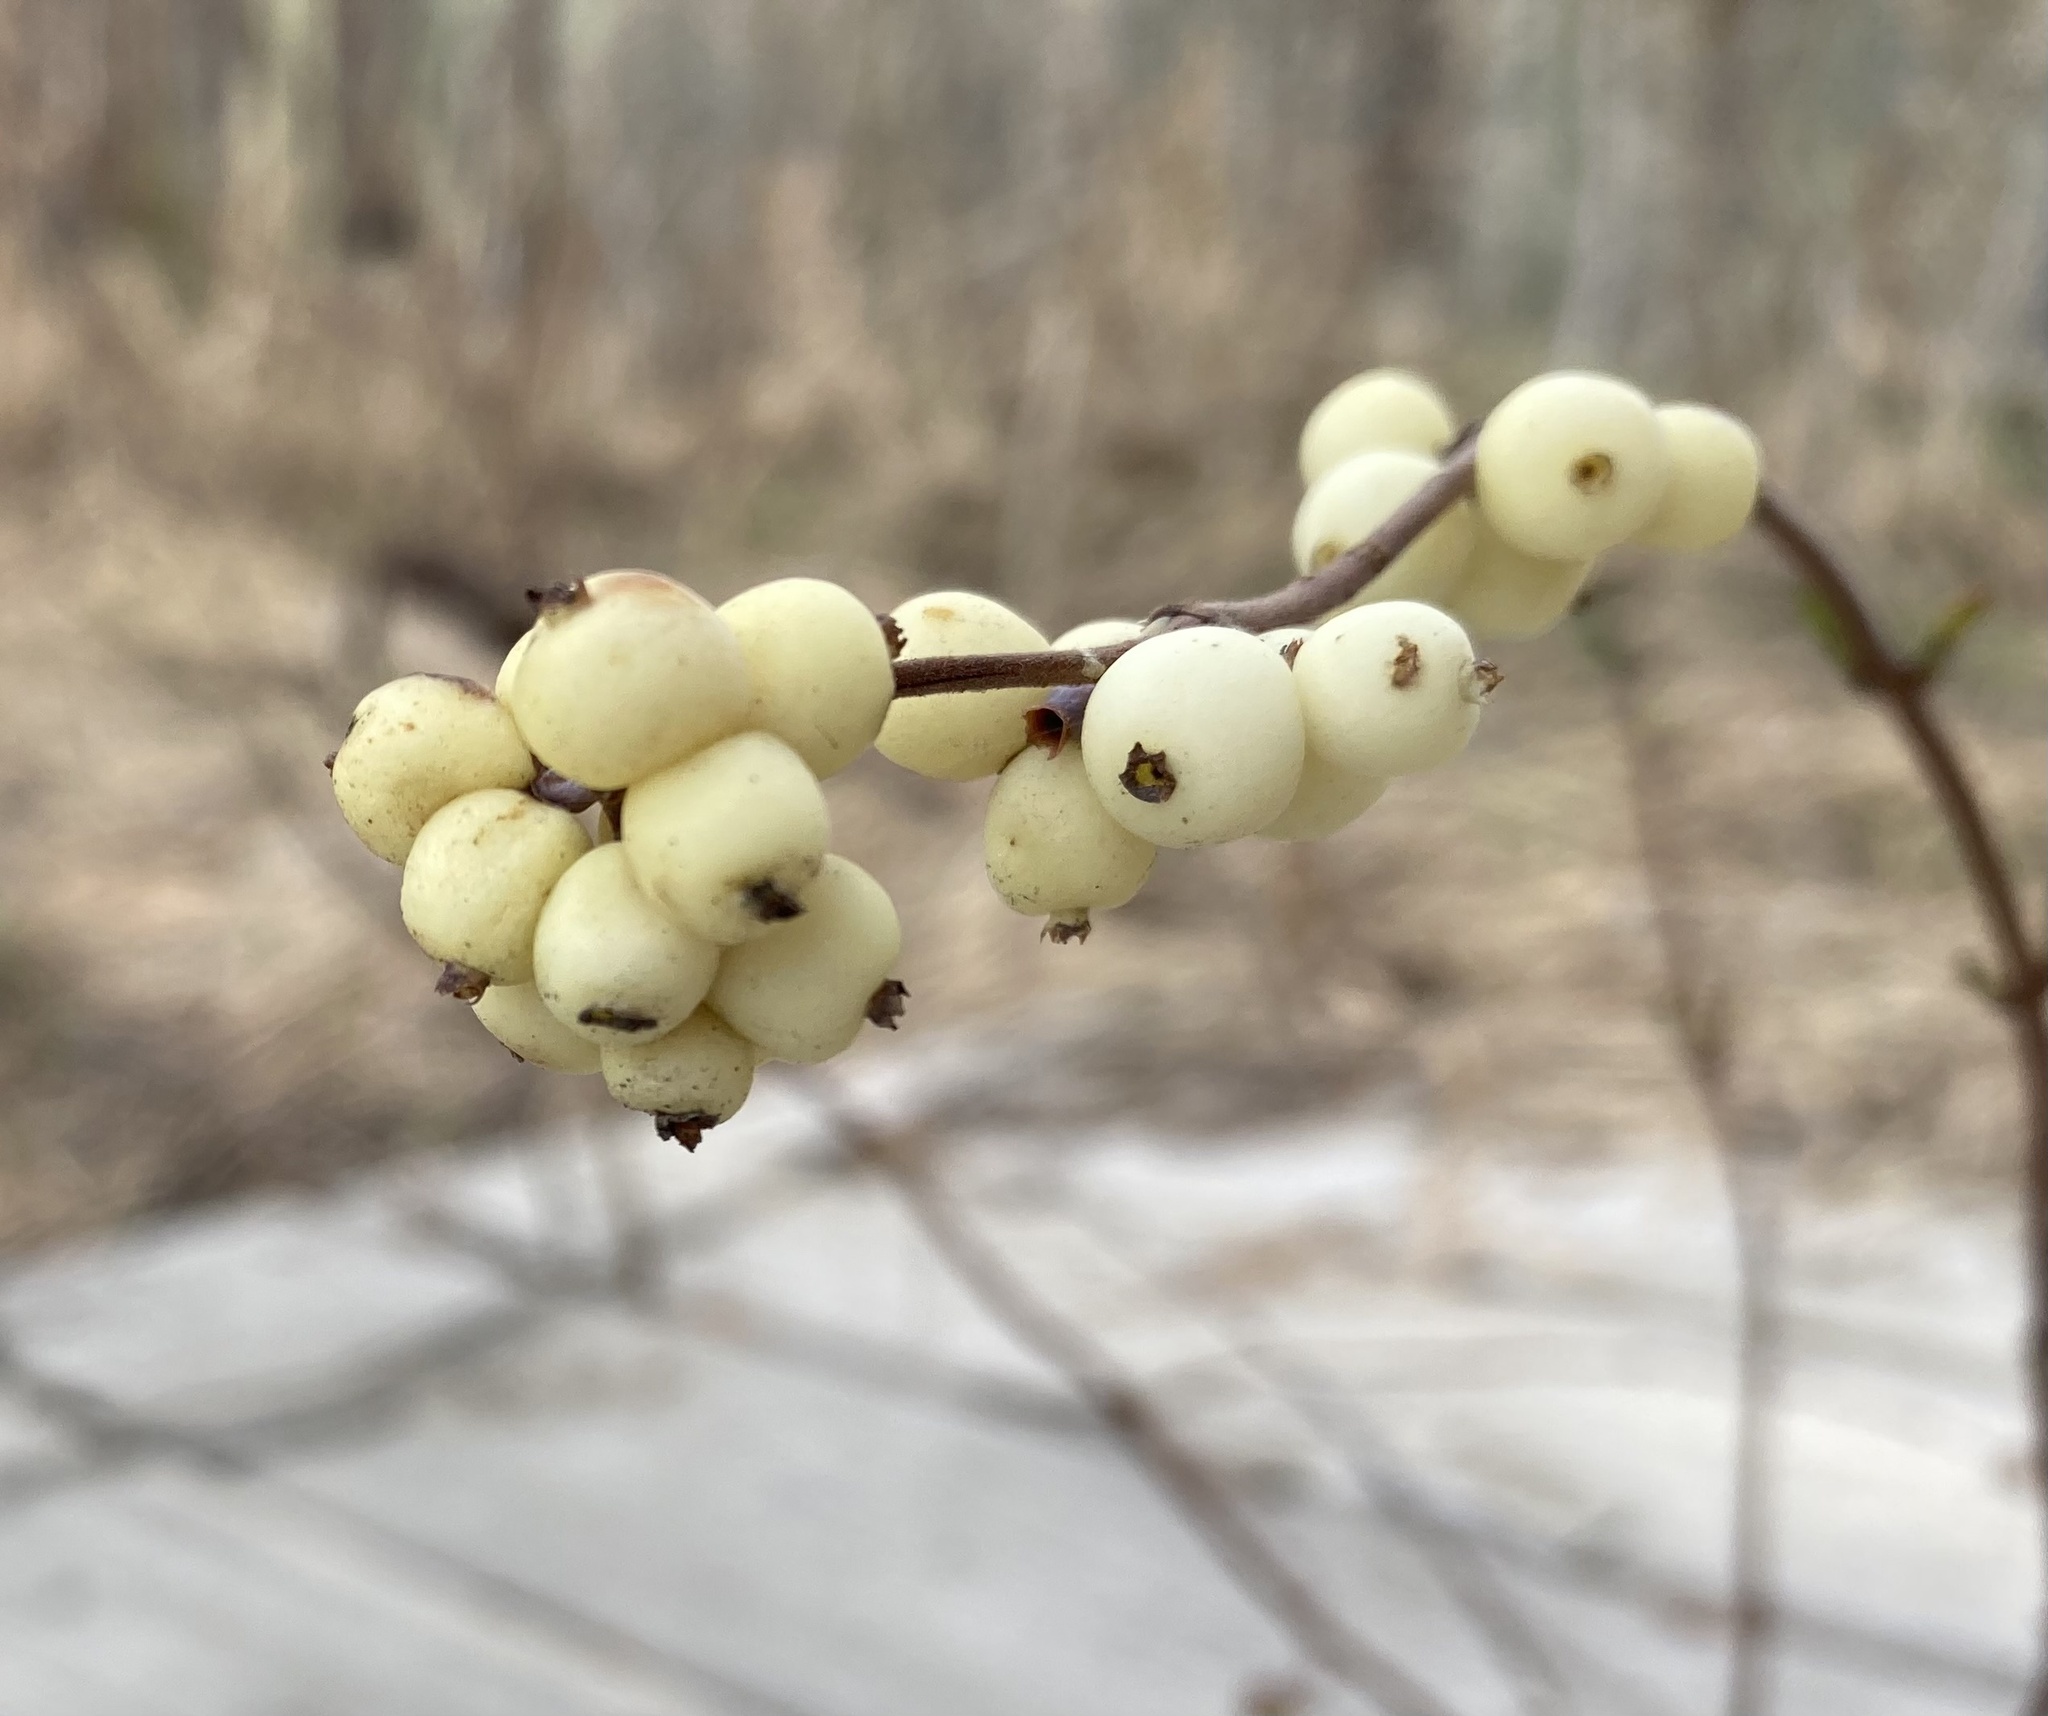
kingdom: Plantae
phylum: Tracheophyta
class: Magnoliopsida
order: Dipsacales
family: Caprifoliaceae
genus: Symphoricarpos
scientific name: Symphoricarpos occidentalis
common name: Wolfberry
